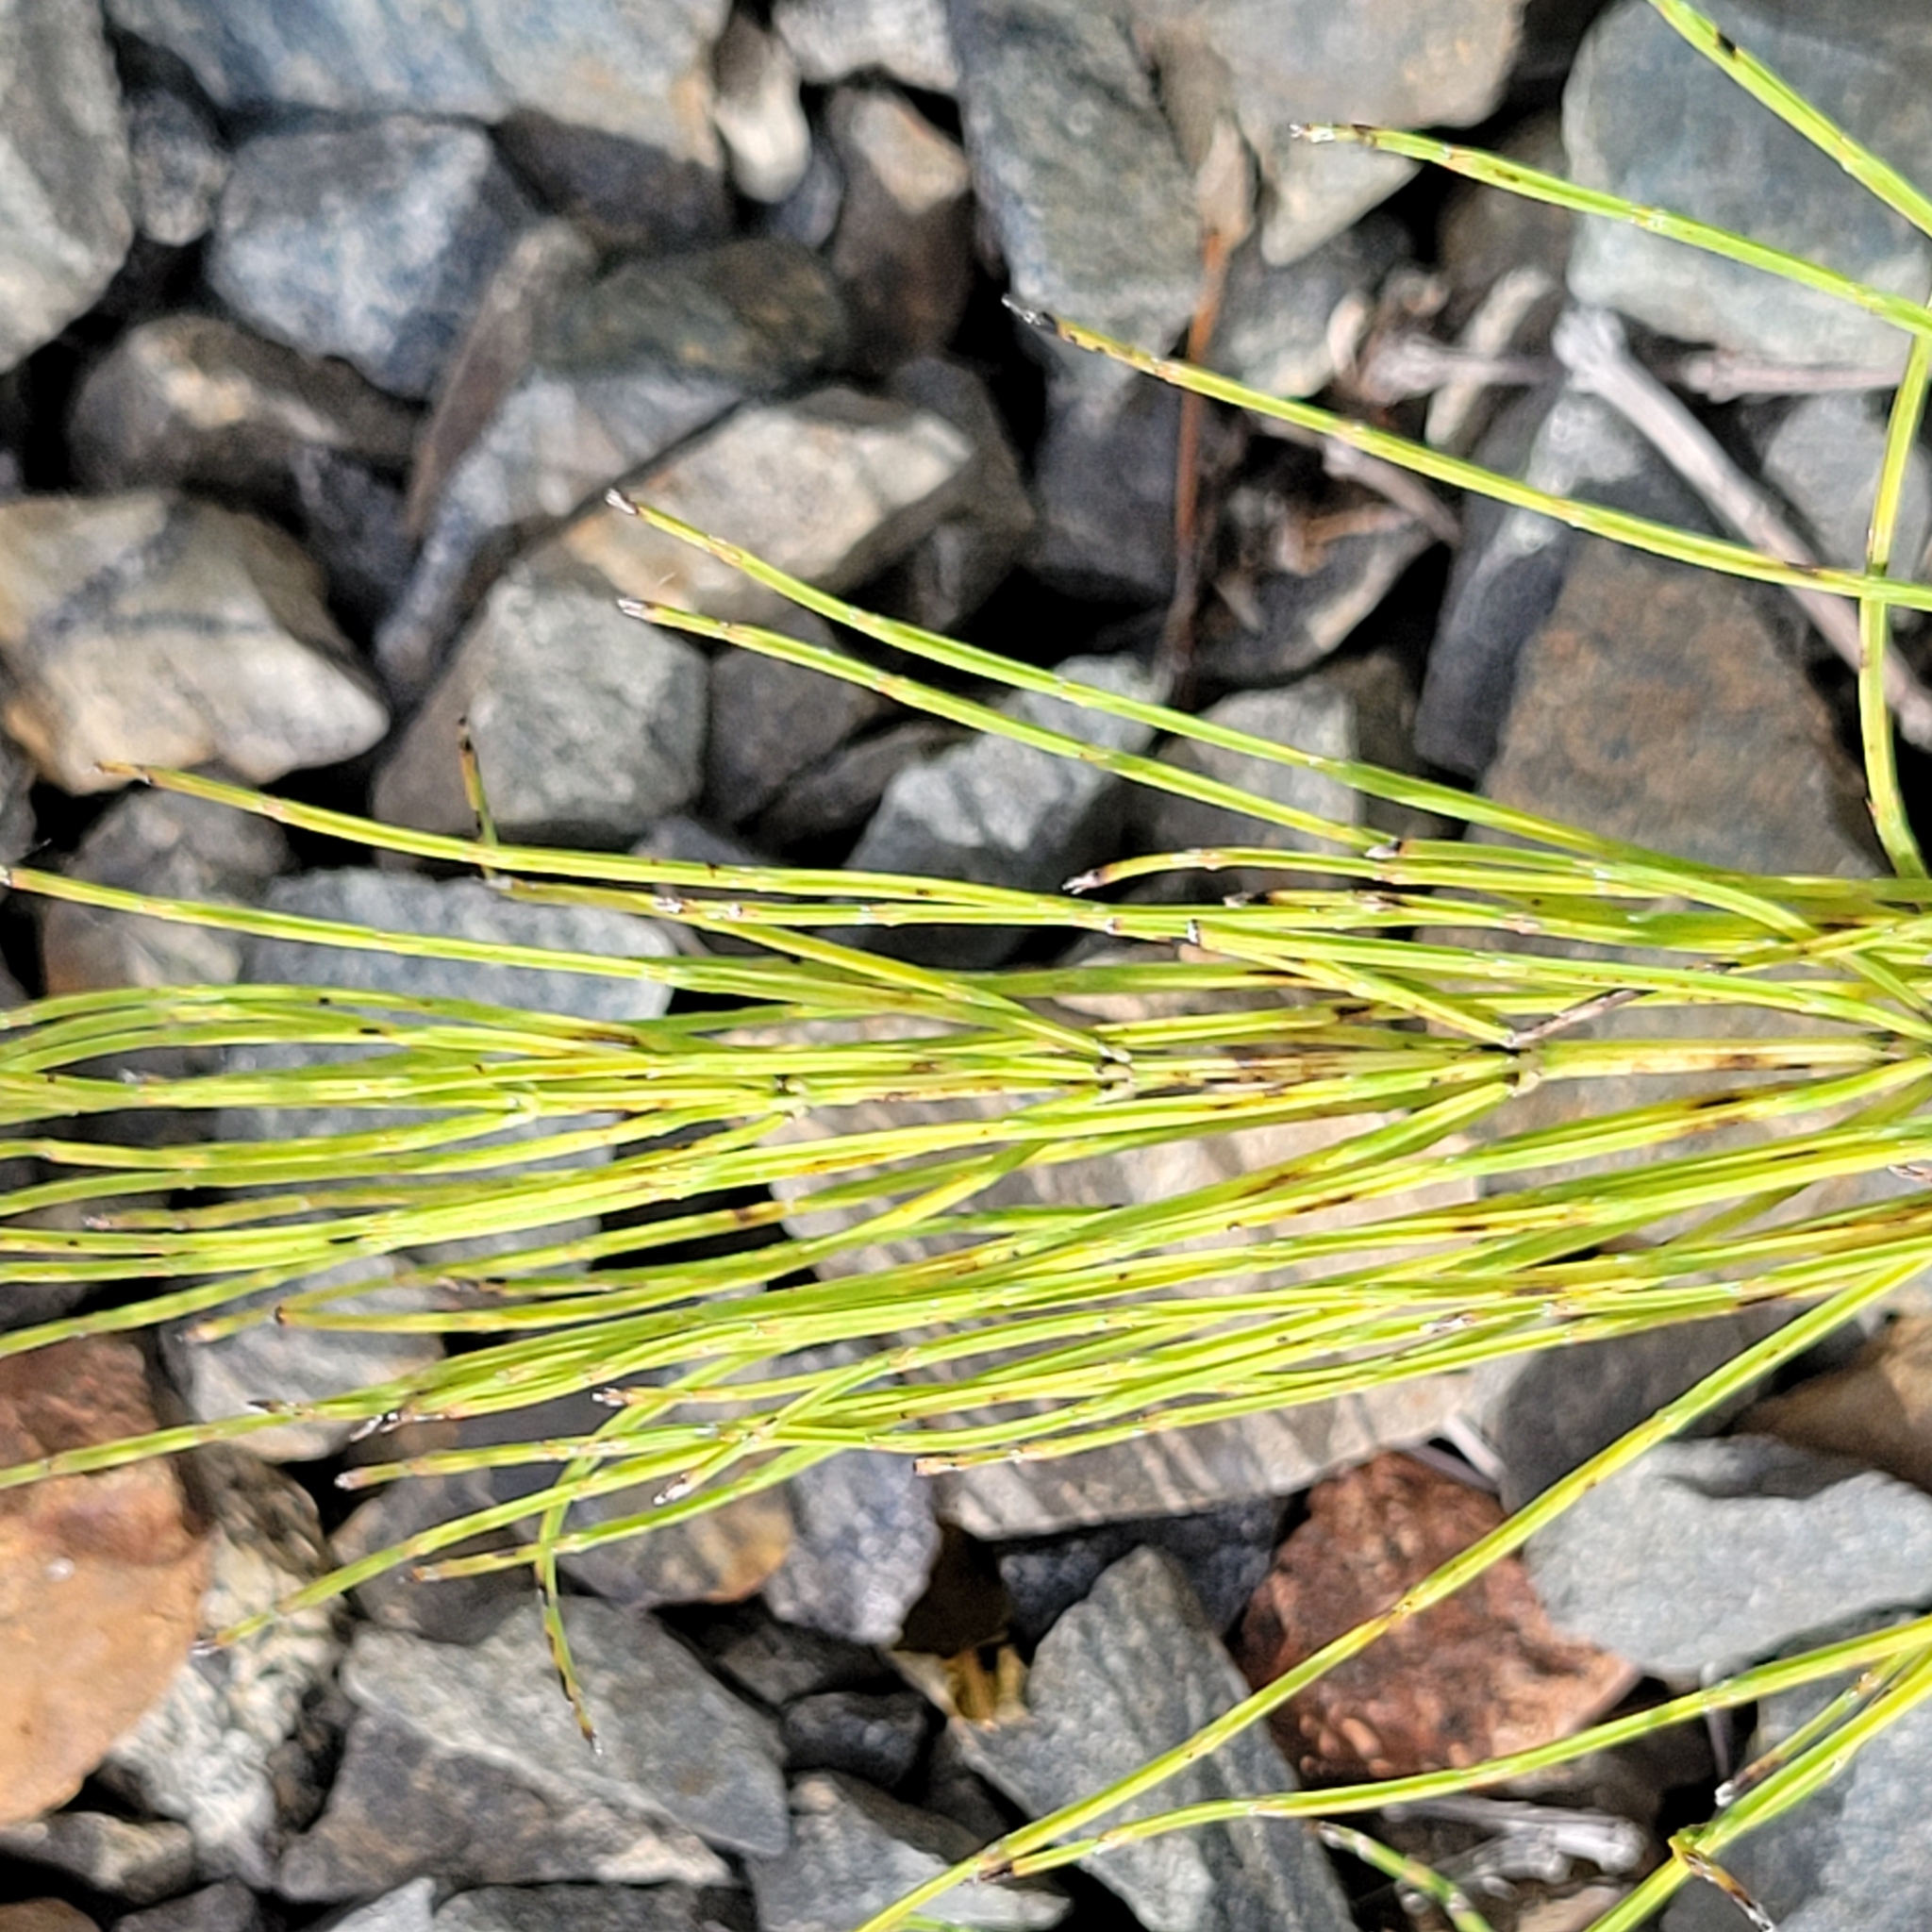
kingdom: Plantae
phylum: Tracheophyta
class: Polypodiopsida
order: Equisetales
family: Equisetaceae
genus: Equisetum
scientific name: Equisetum arvense
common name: Field horsetail
